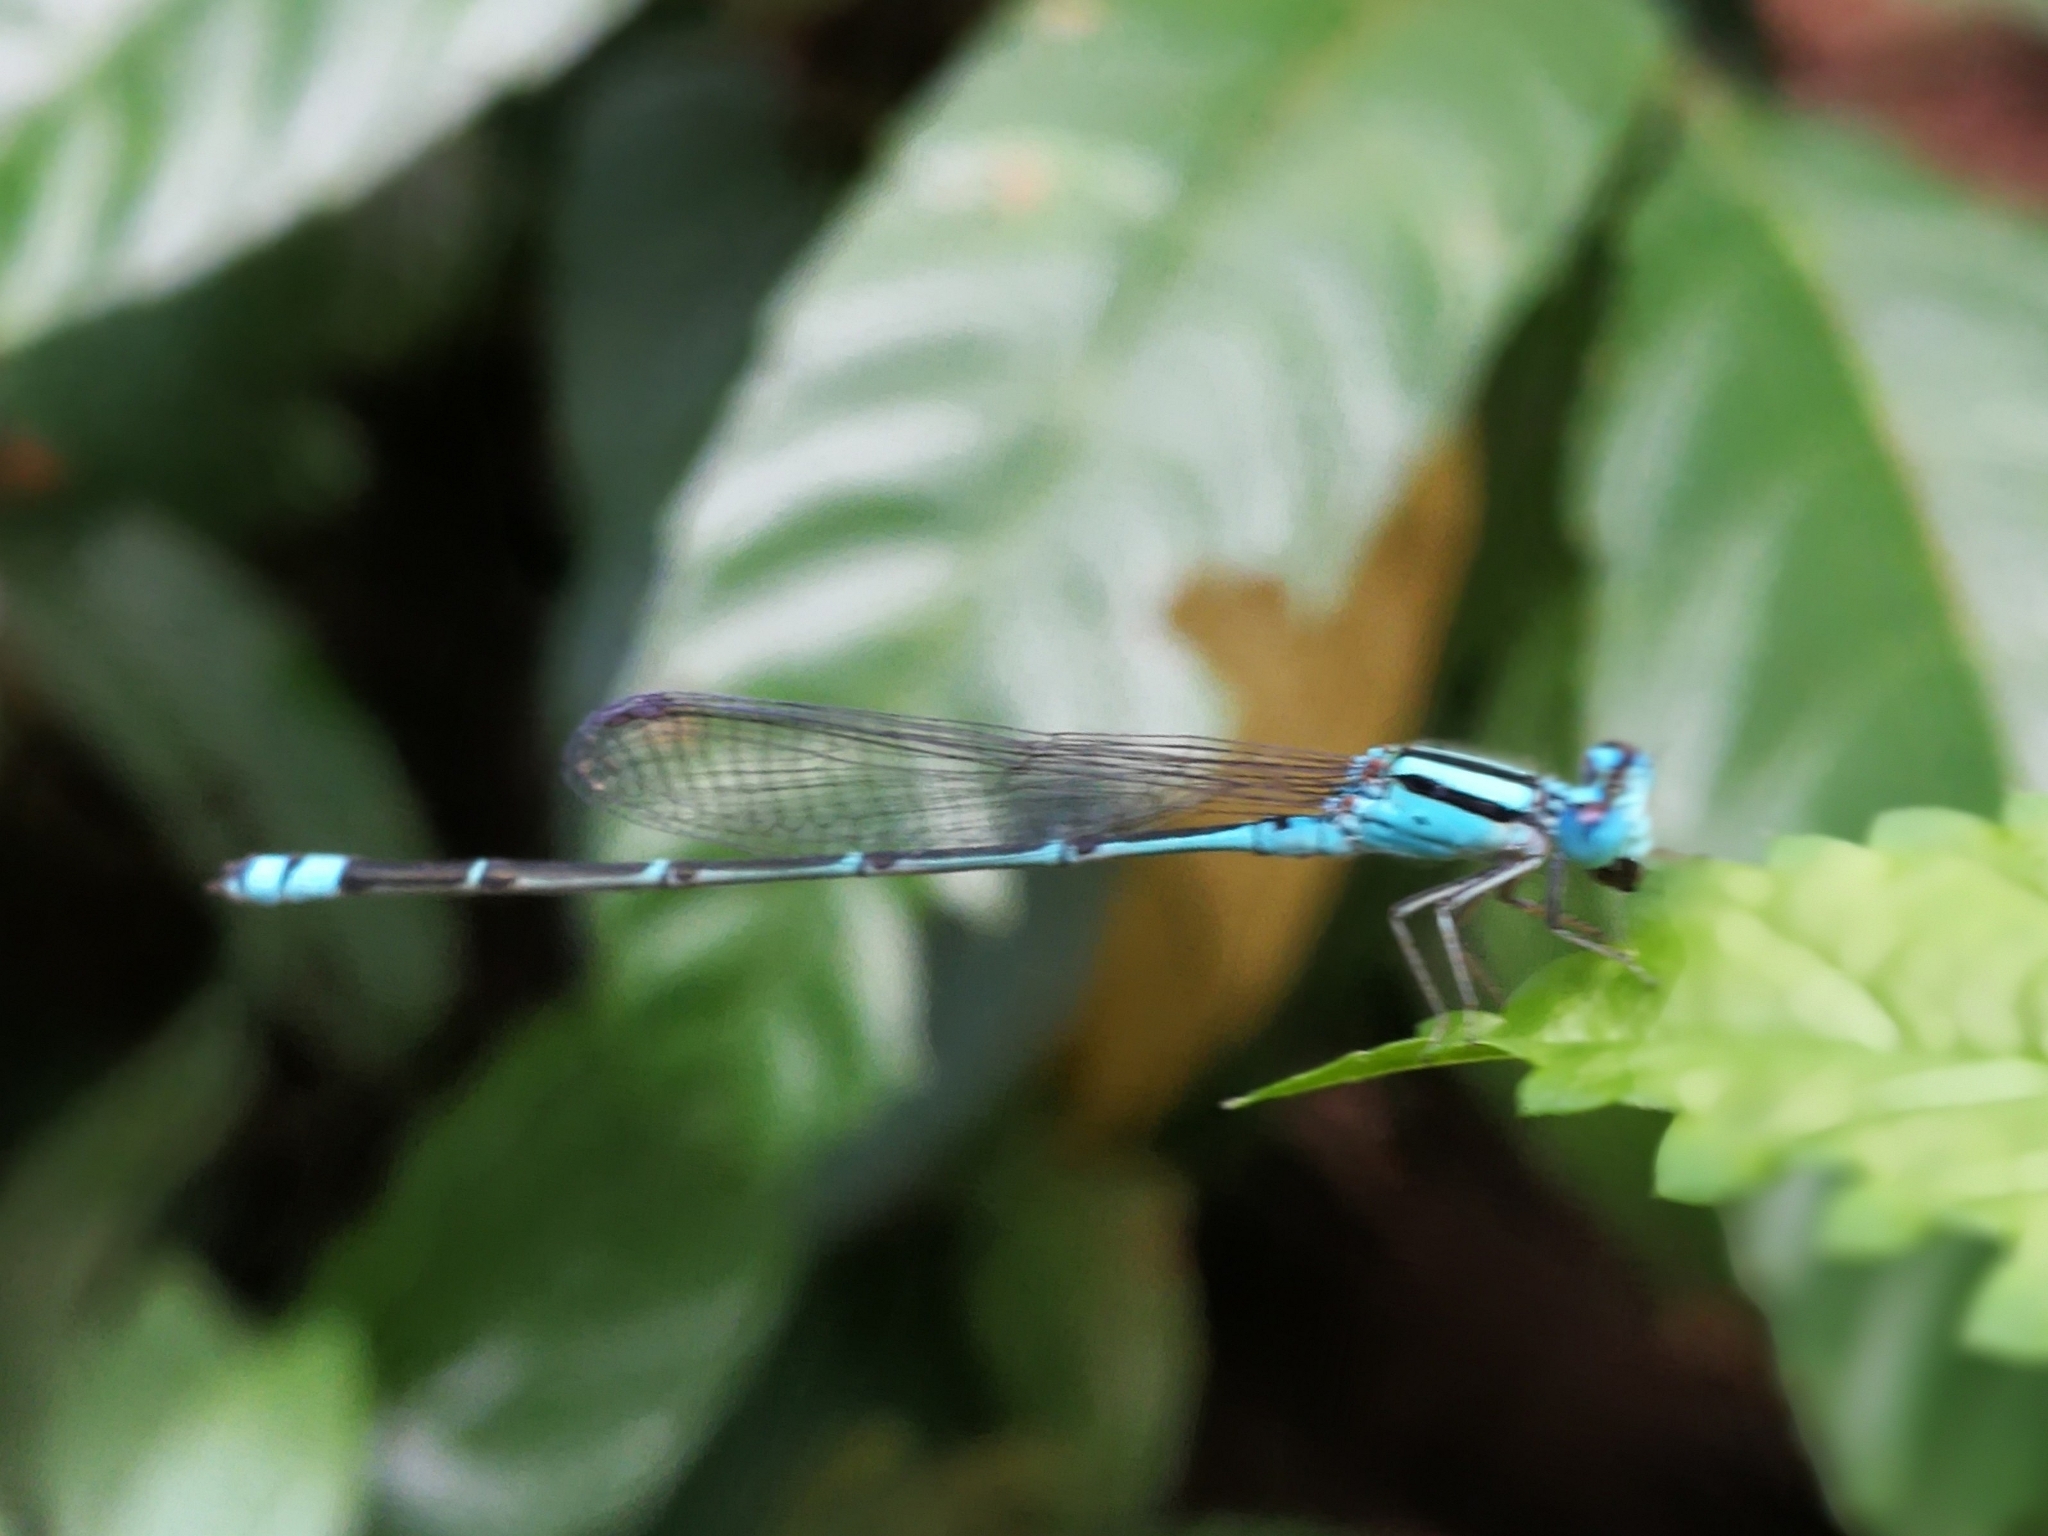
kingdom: Animalia
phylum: Arthropoda
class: Insecta
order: Odonata
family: Coenagrionidae
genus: Pseudagrion
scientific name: Pseudagrion microcephalum
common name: Blue riverdamsel
